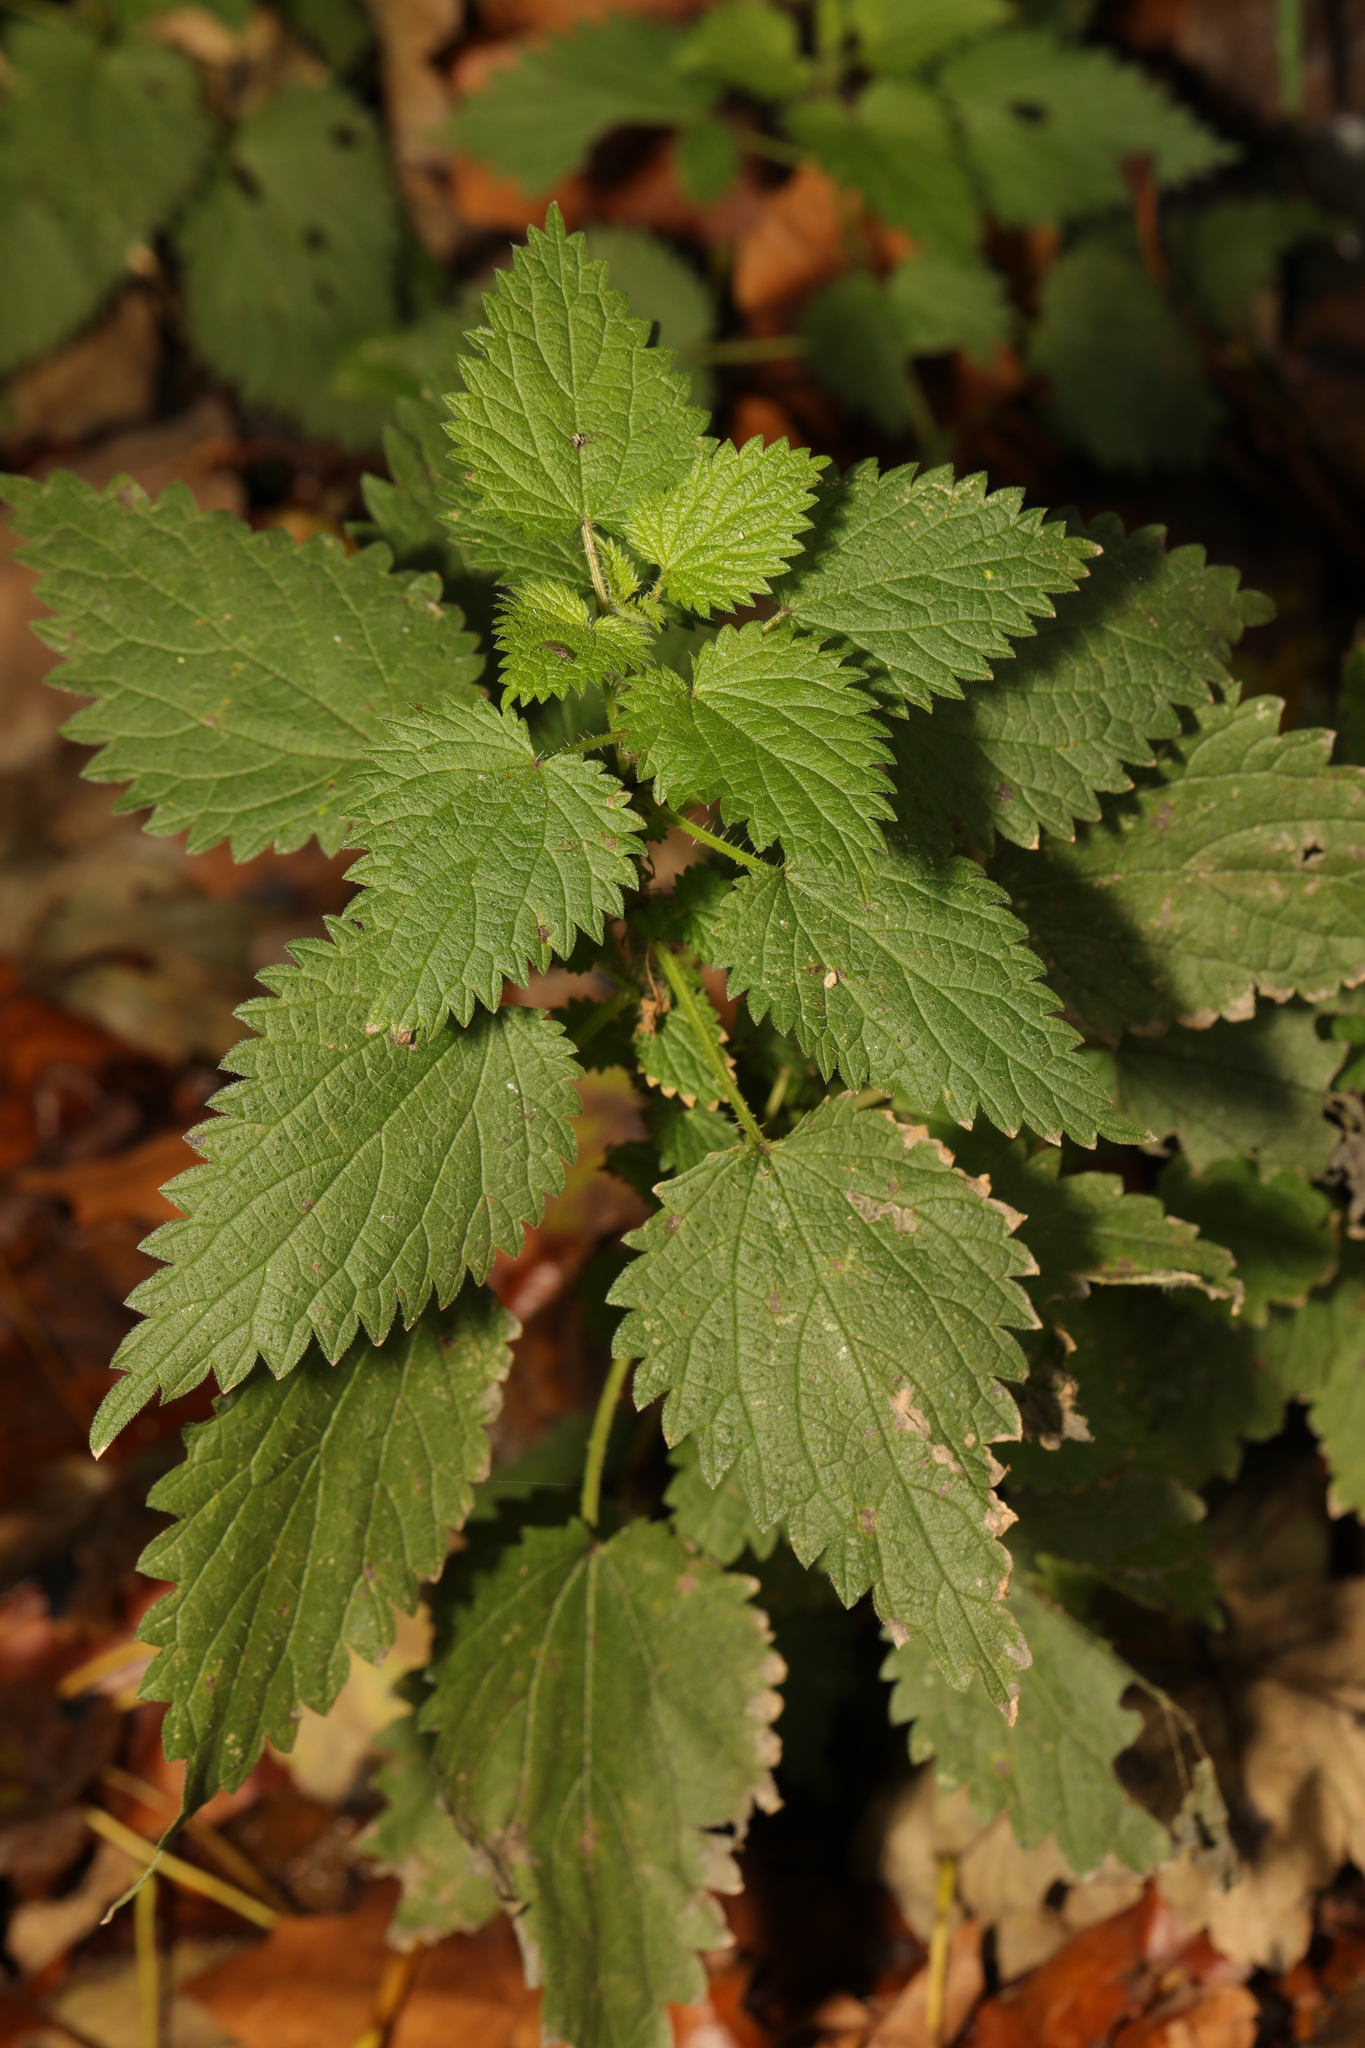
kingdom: Plantae
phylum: Tracheophyta
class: Magnoliopsida
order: Rosales
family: Urticaceae
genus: Urtica
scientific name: Urtica dioica
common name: Common nettle
